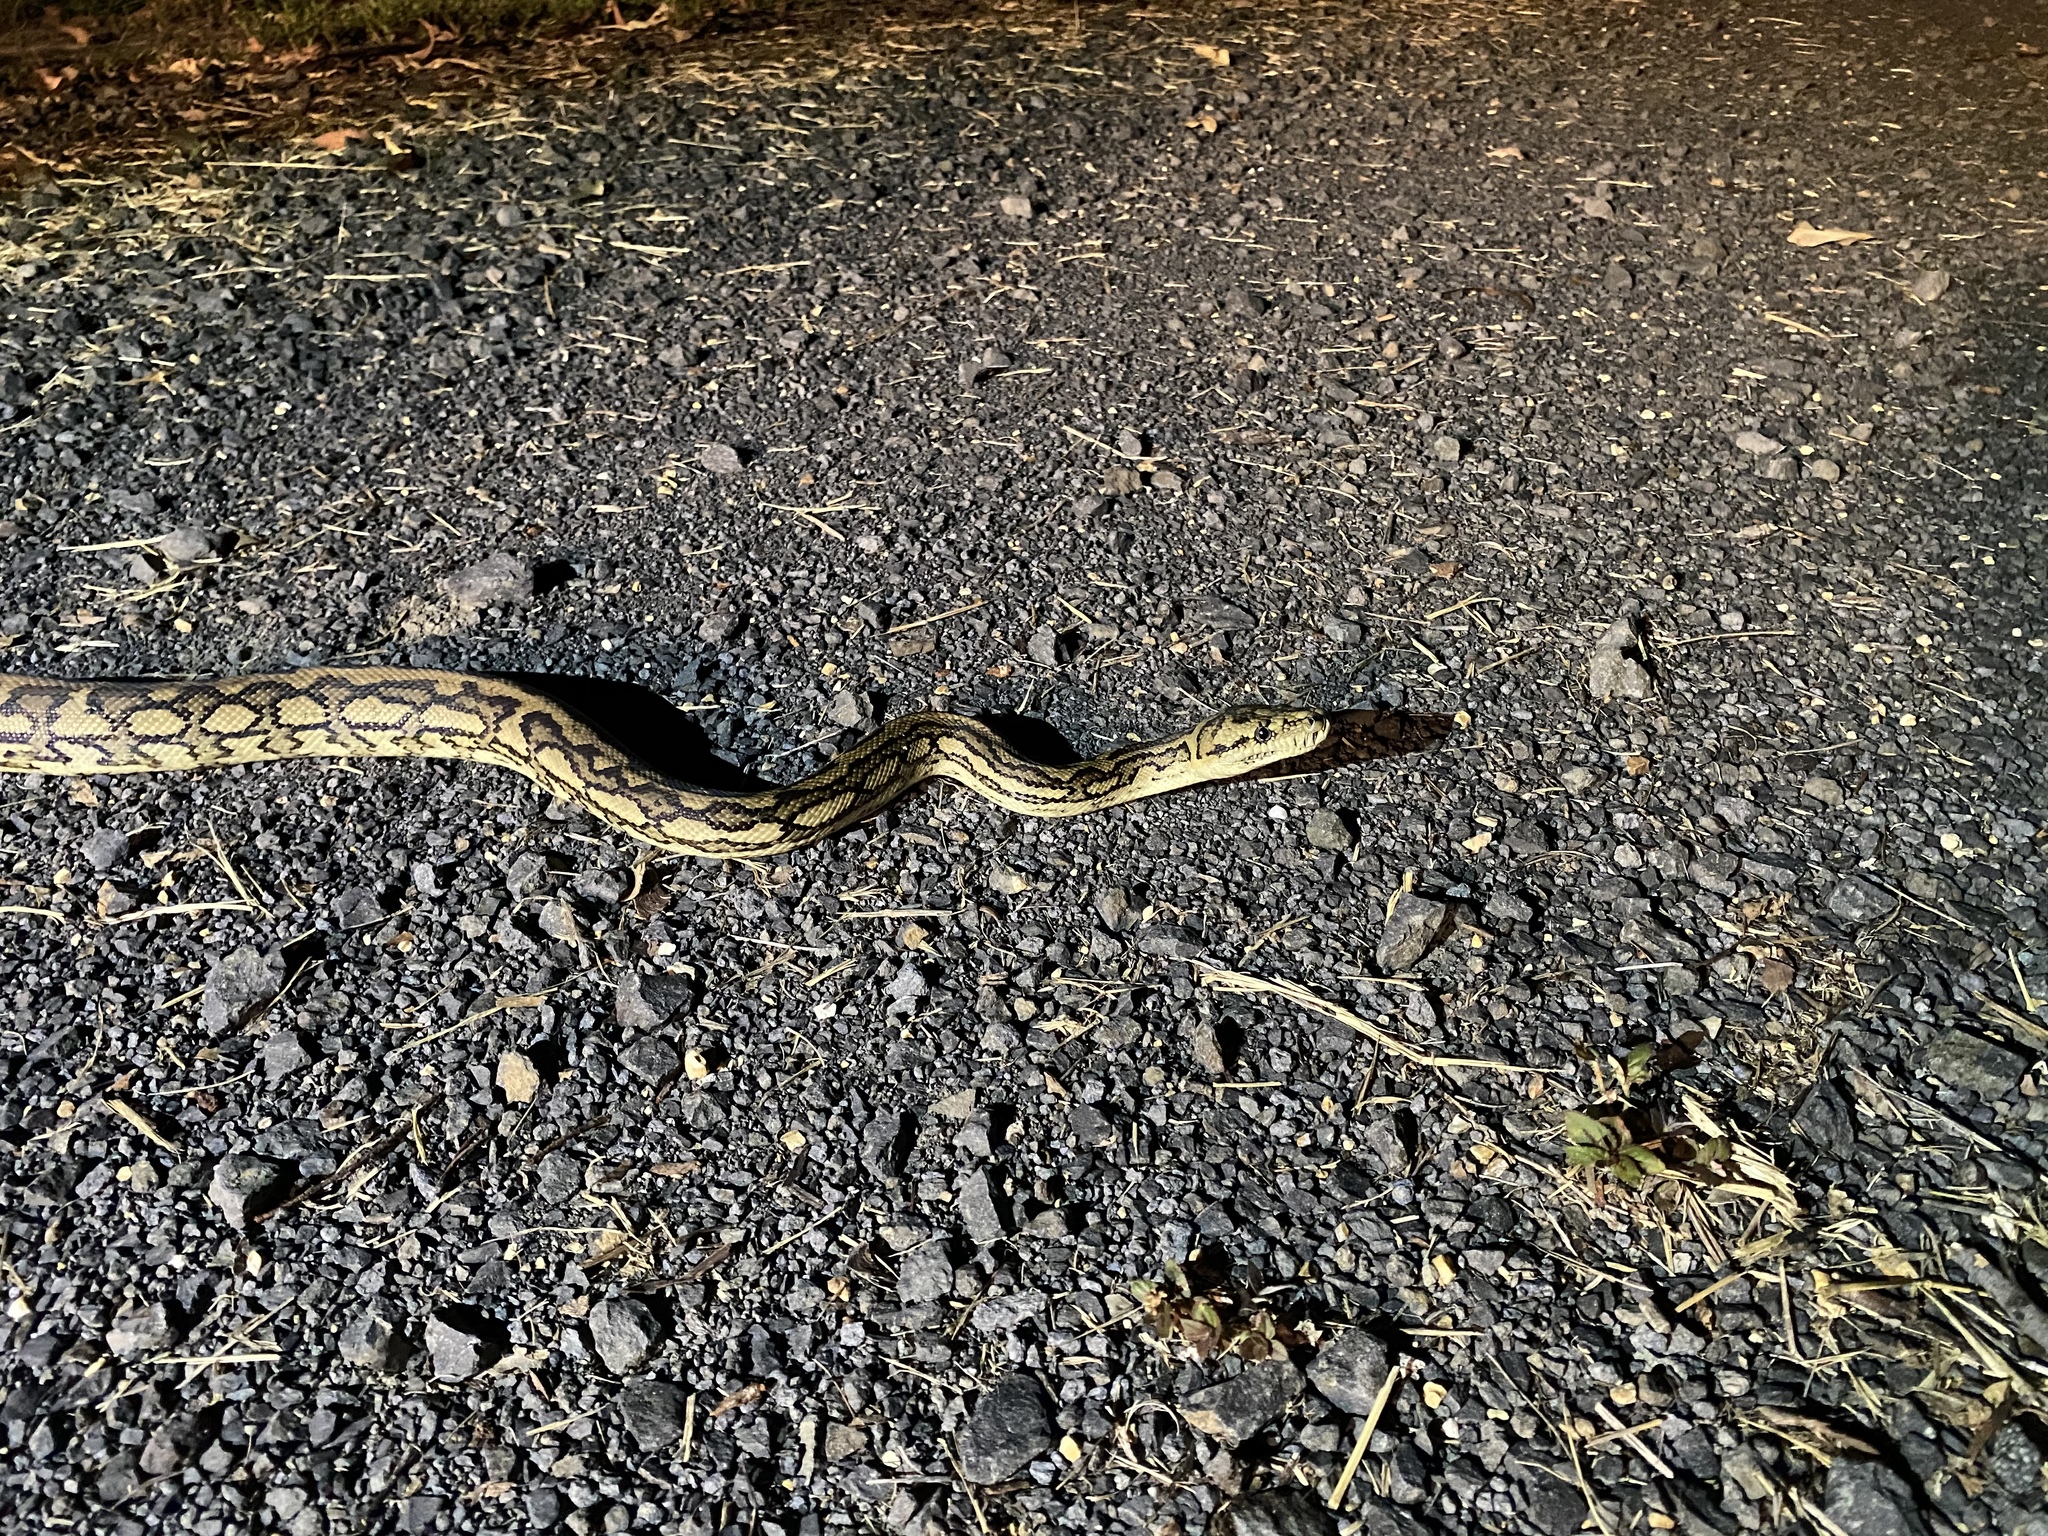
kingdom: Animalia
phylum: Chordata
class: Squamata
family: Pythonidae
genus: Morelia
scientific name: Morelia spilota
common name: Carpet python
